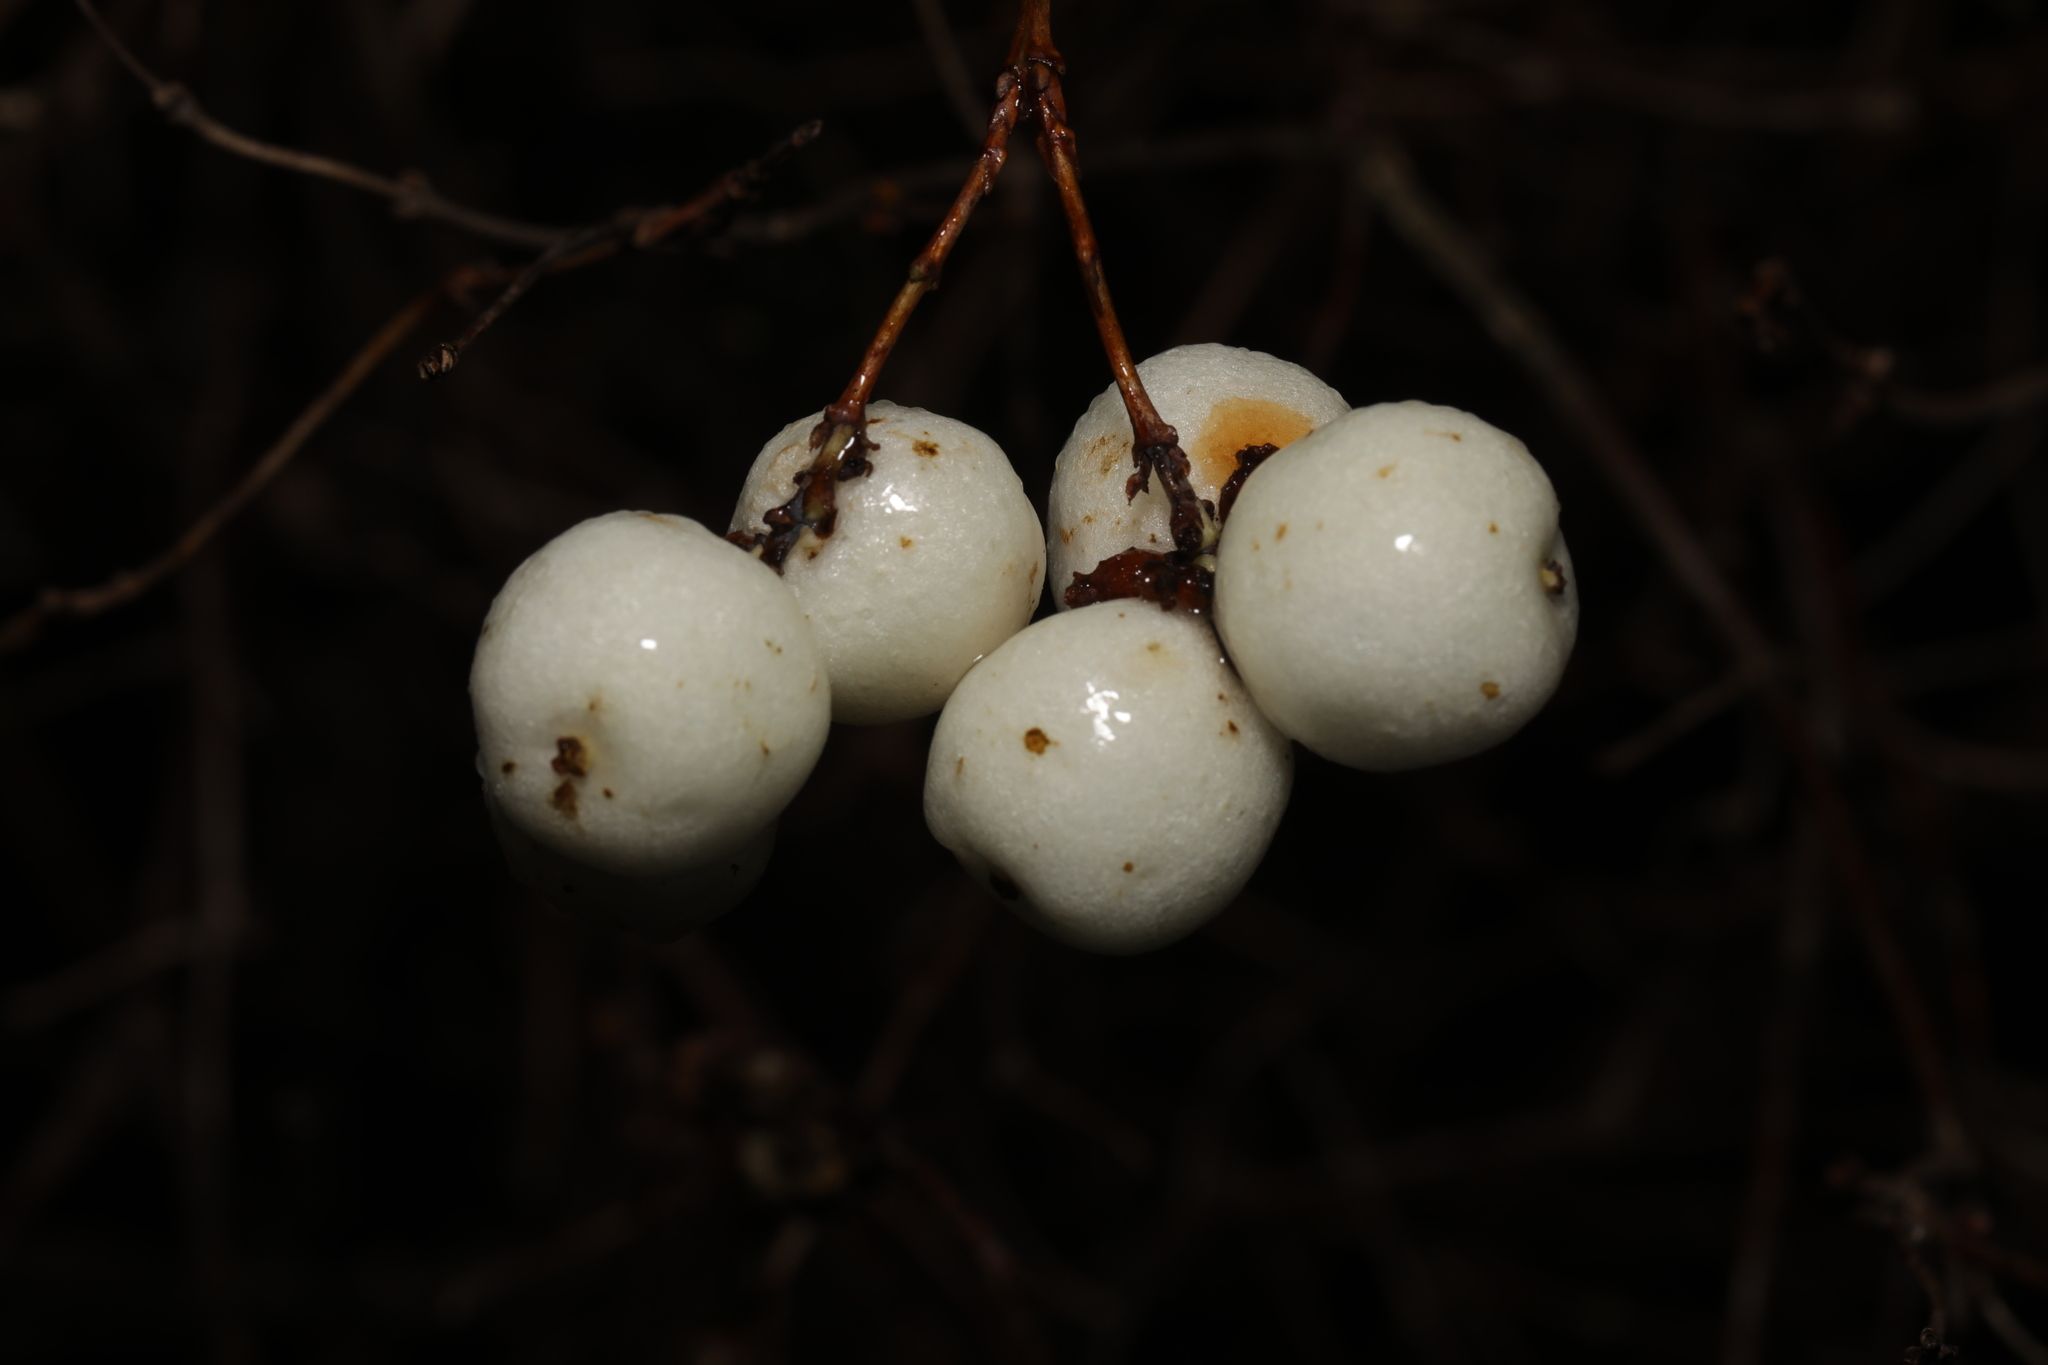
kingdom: Plantae
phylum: Tracheophyta
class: Magnoliopsida
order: Dipsacales
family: Caprifoliaceae
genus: Symphoricarpos
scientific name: Symphoricarpos albus
